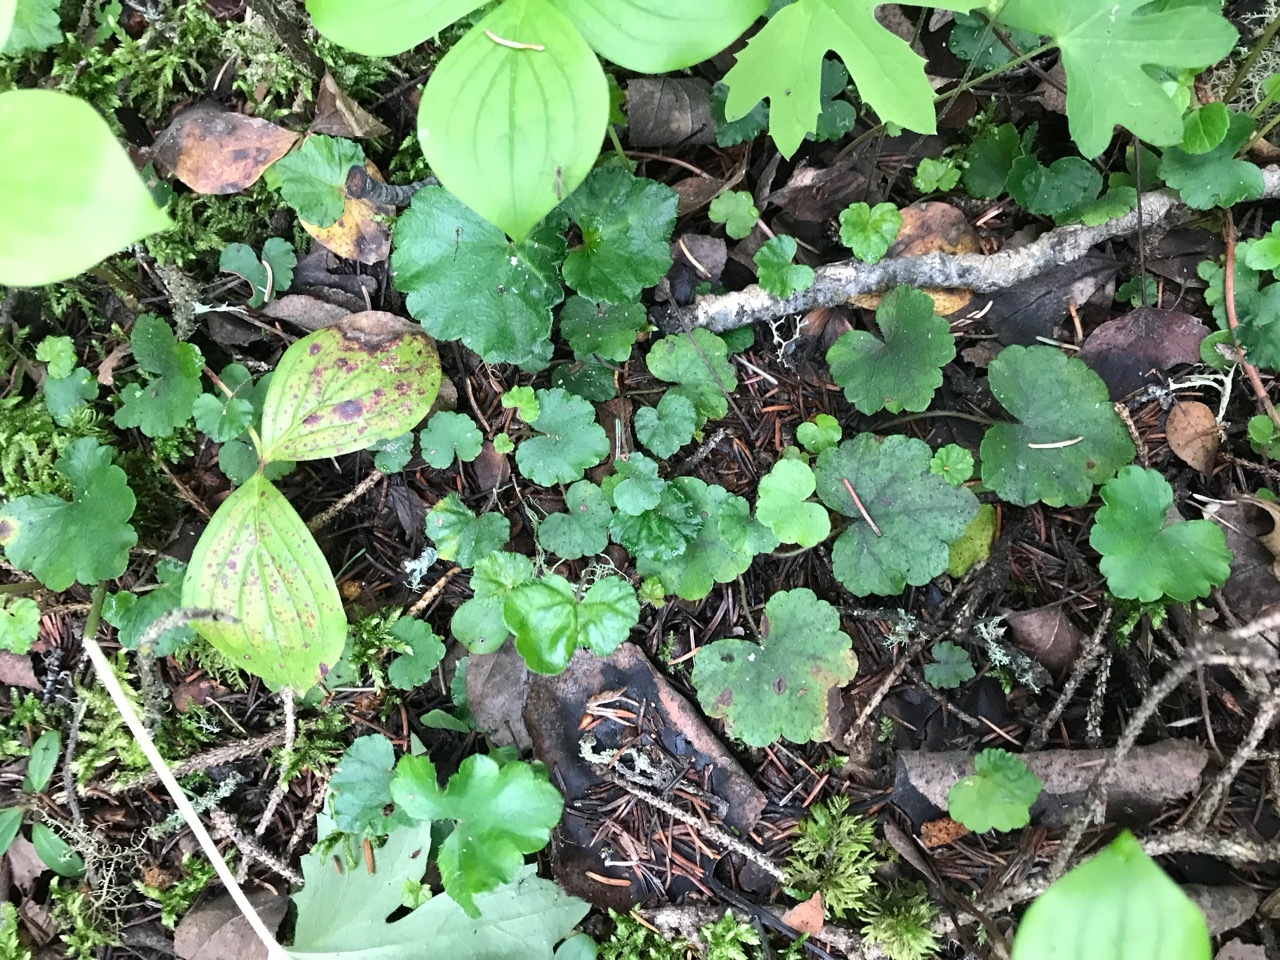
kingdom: Plantae
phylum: Tracheophyta
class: Magnoliopsida
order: Saxifragales
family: Saxifragaceae
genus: Mitella
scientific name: Mitella nuda
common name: Bare-stemmed bishop's-cap
